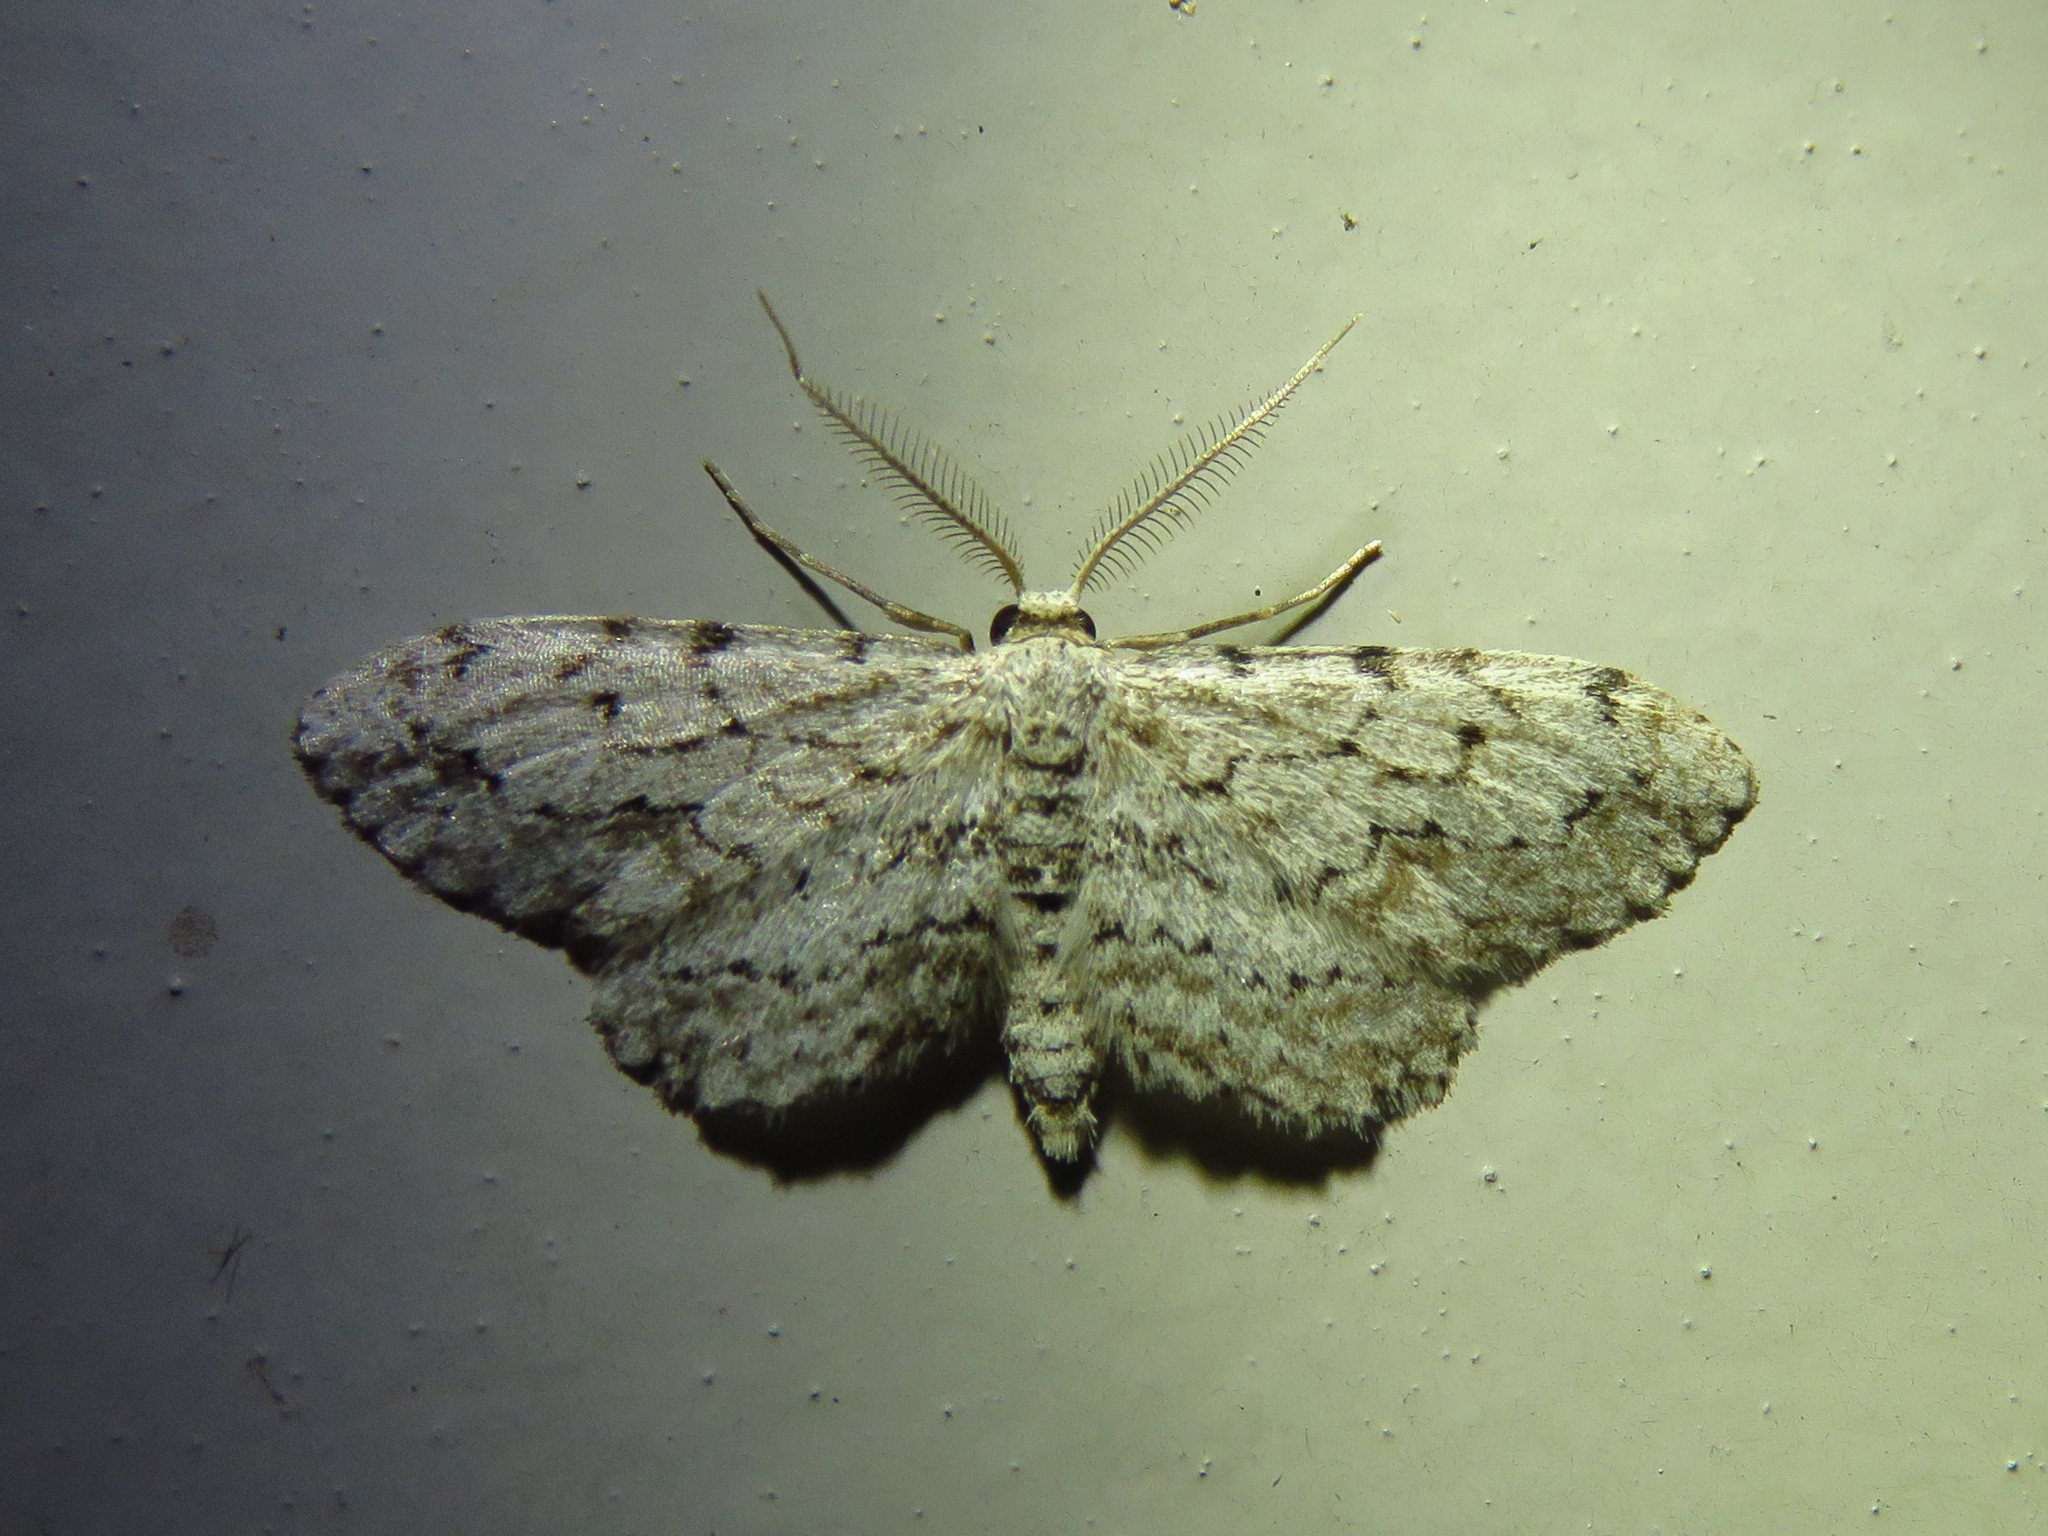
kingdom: Animalia
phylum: Arthropoda
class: Insecta
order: Lepidoptera
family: Geometridae
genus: Pimaphera
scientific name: Pimaphera sparsaria
